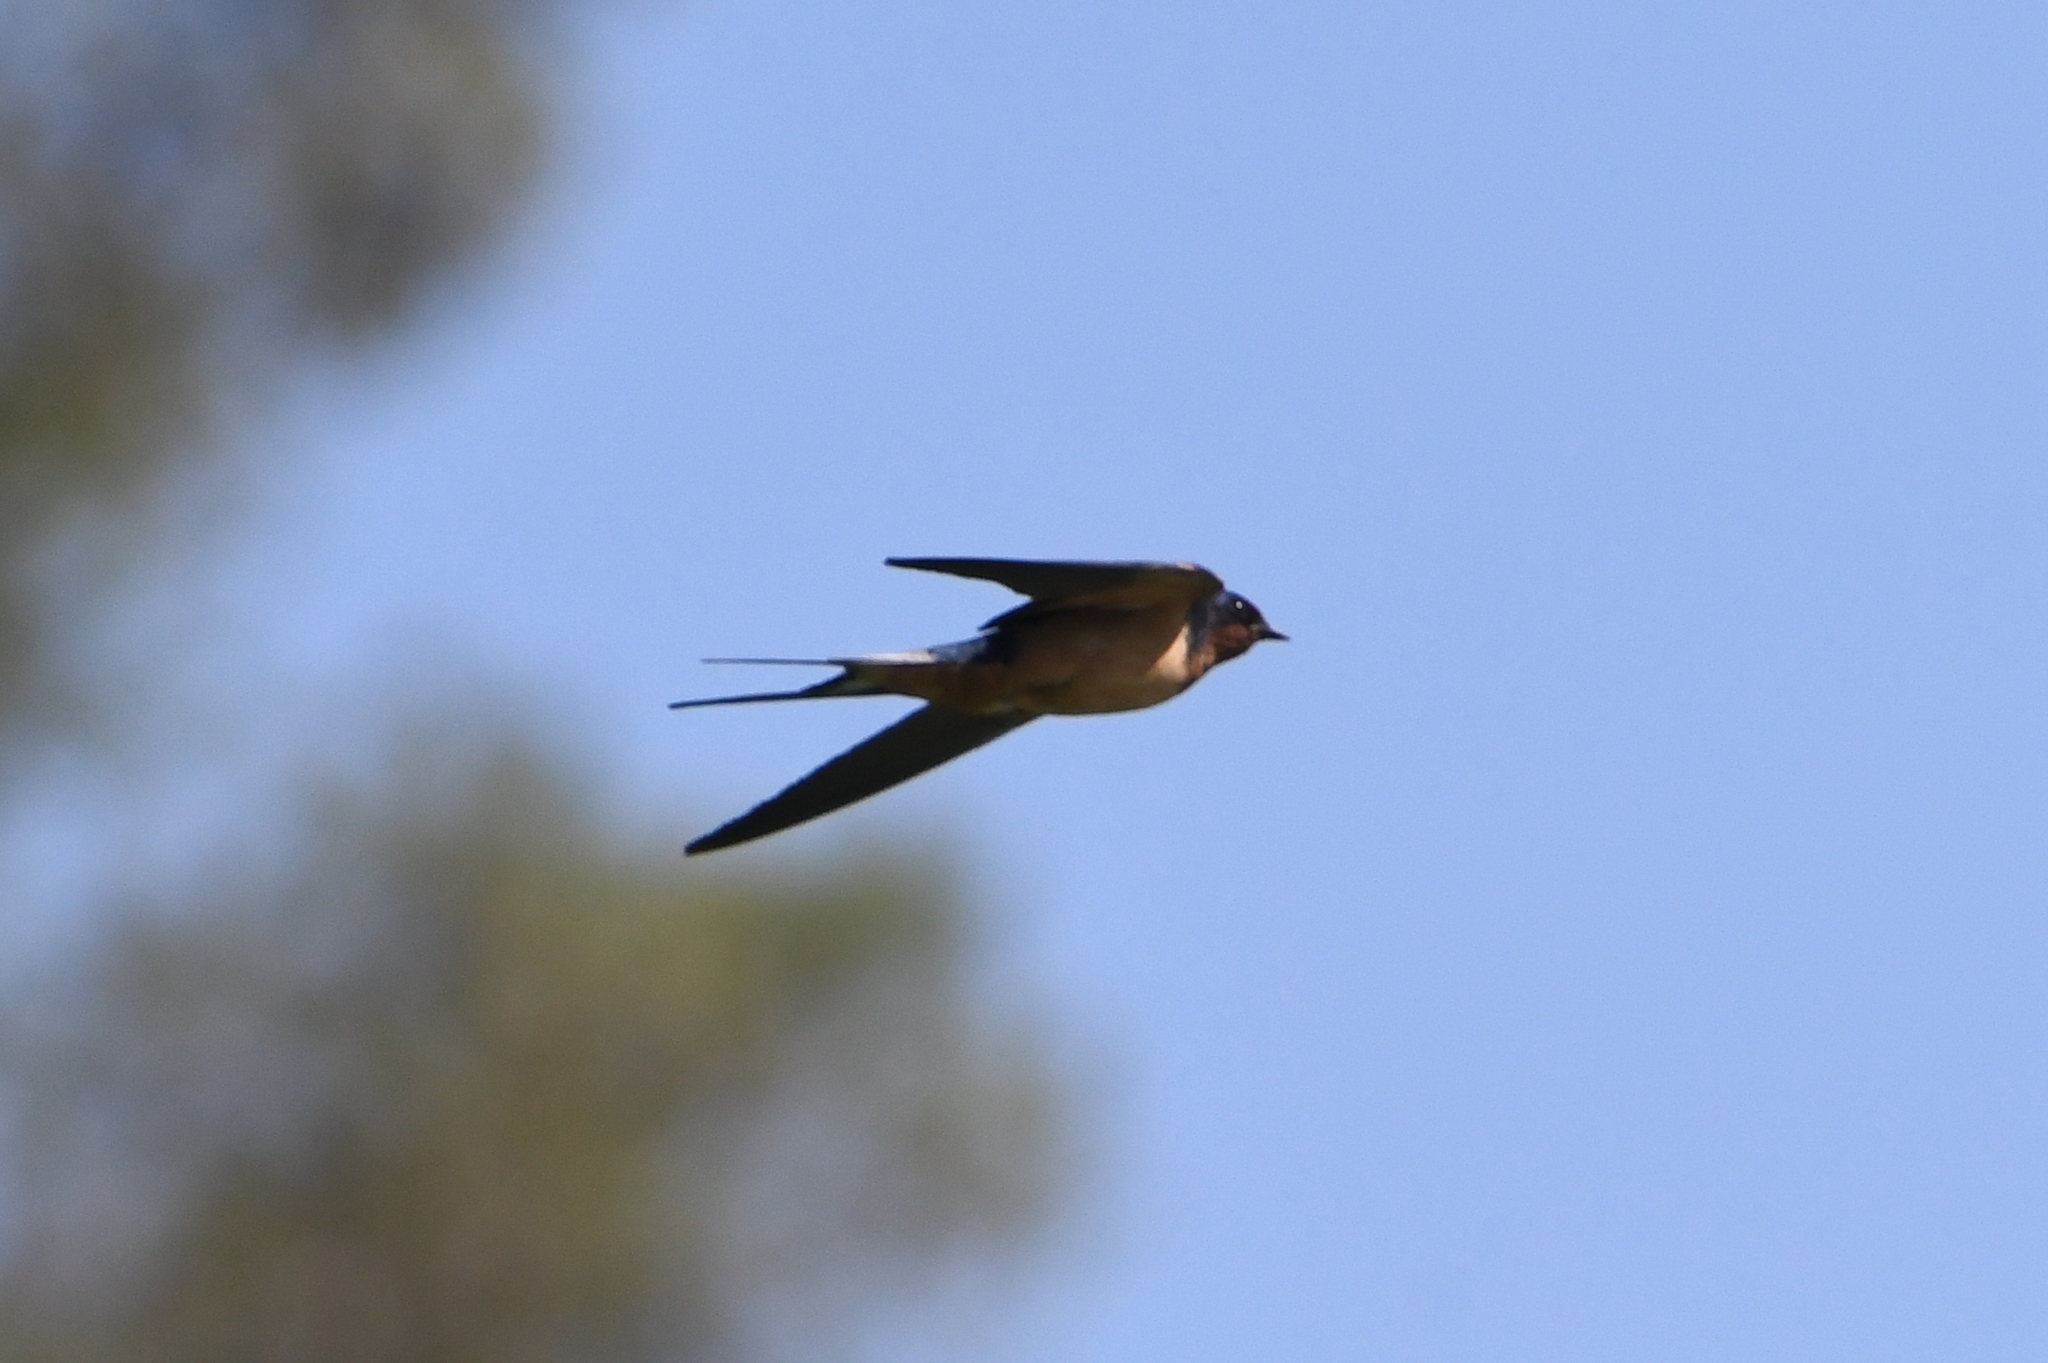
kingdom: Animalia
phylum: Chordata
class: Aves
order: Passeriformes
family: Hirundinidae
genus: Hirundo
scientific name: Hirundo rustica
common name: Barn swallow
